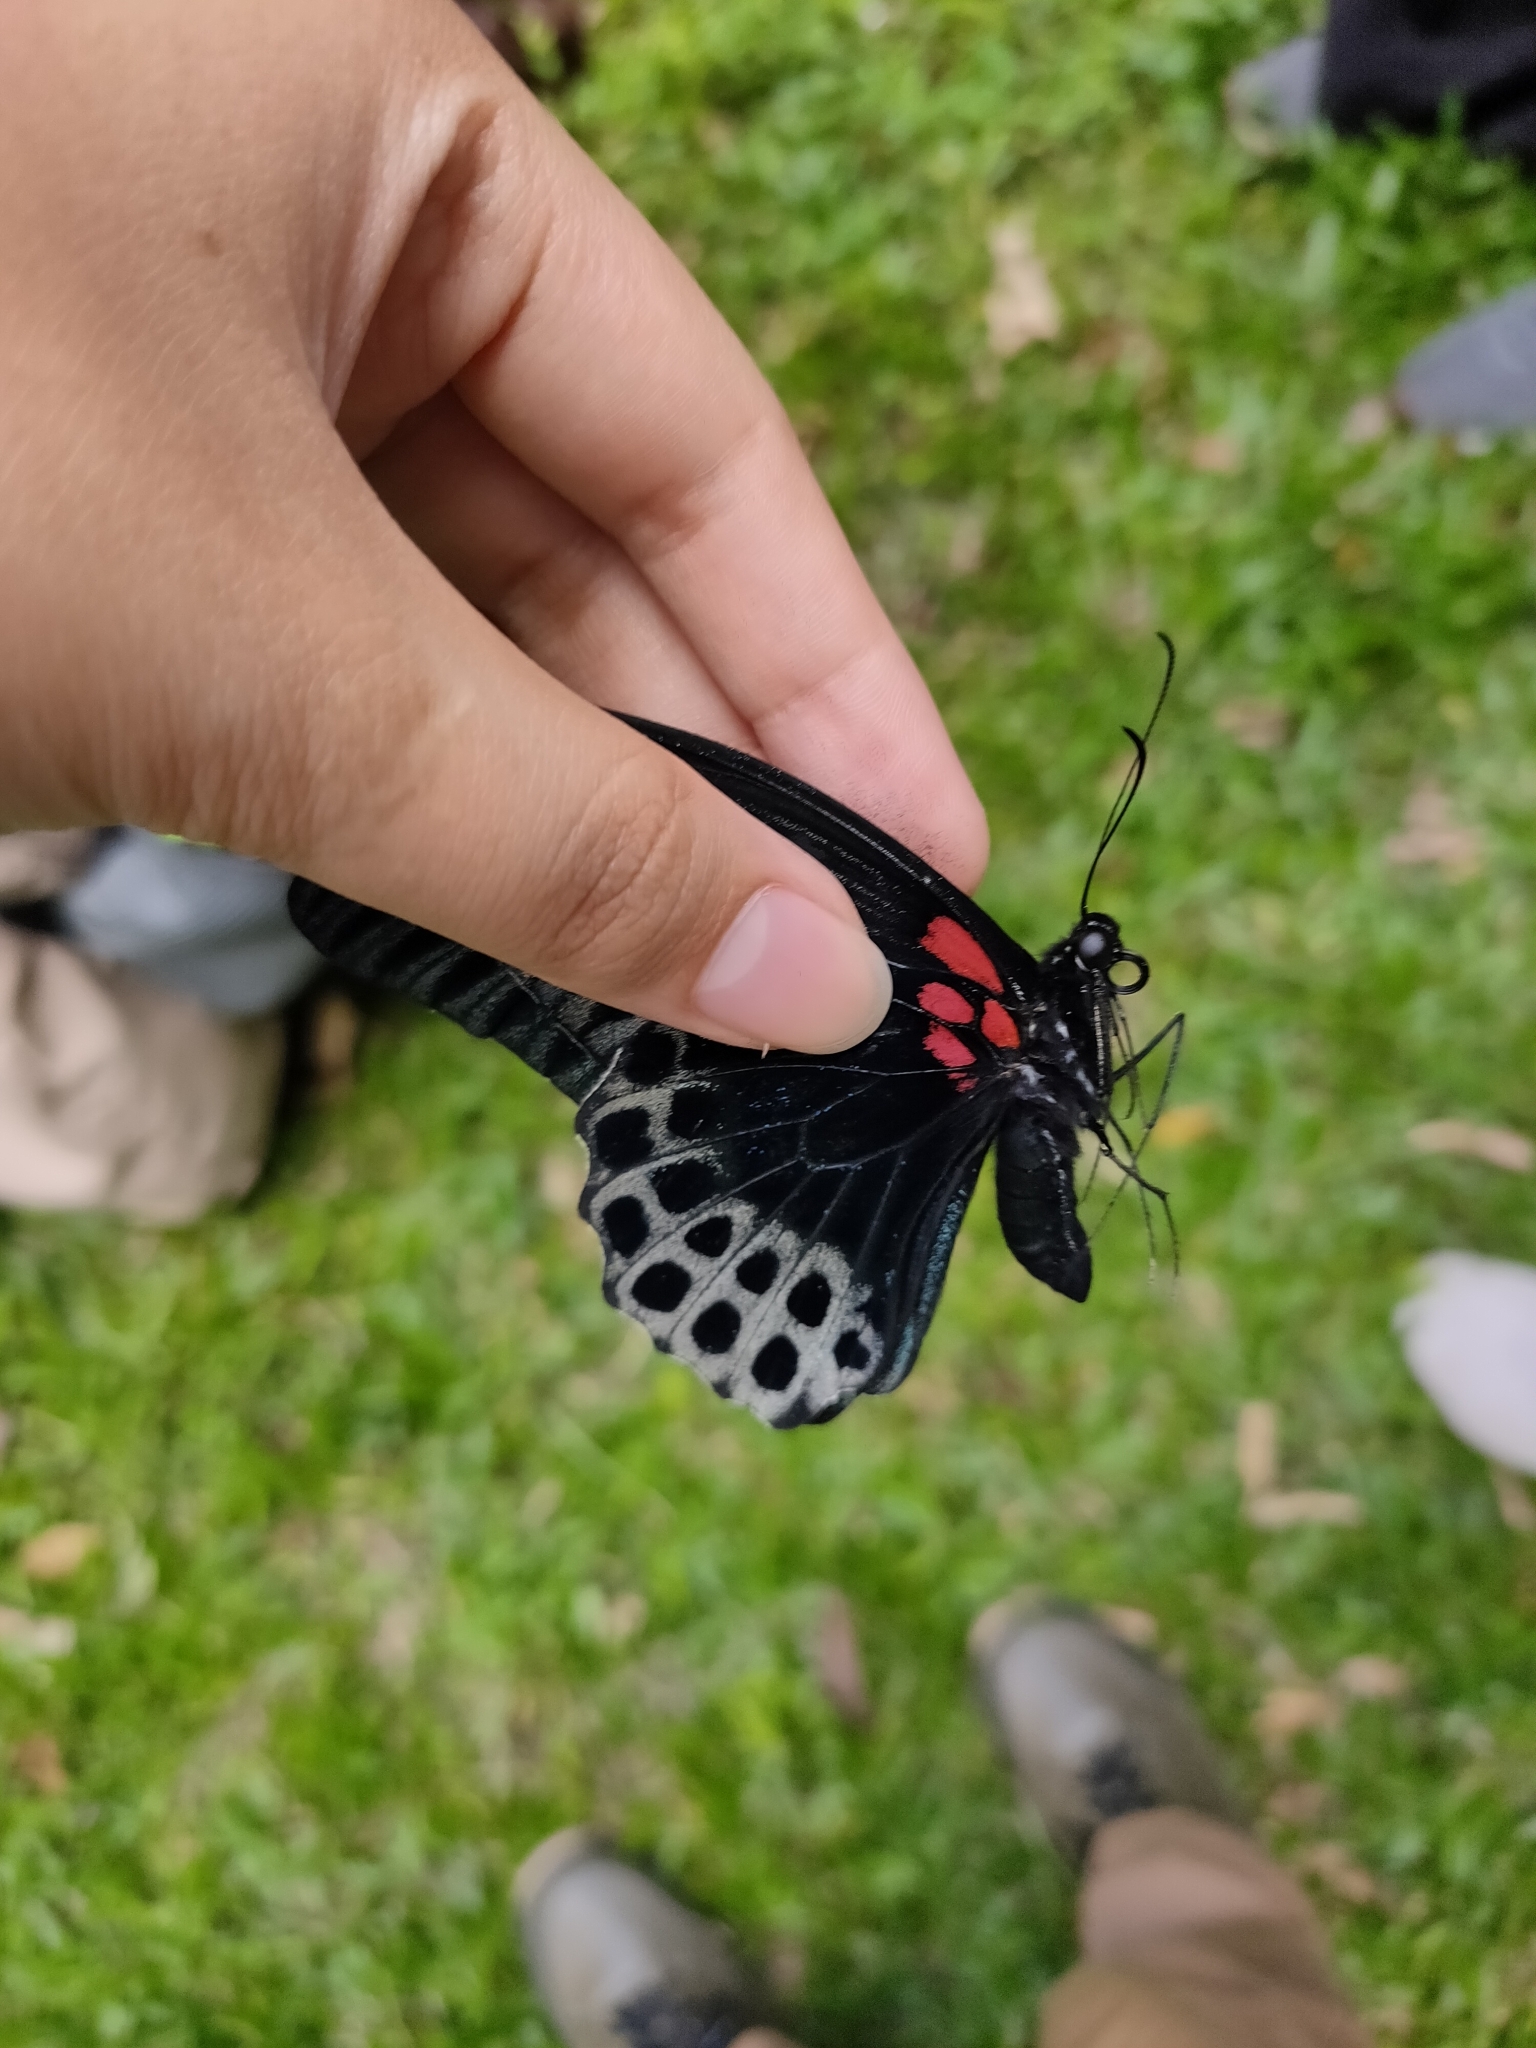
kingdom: Animalia
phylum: Arthropoda
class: Insecta
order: Lepidoptera
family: Papilionidae
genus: Papilio
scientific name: Papilio memnon
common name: Great mormon
